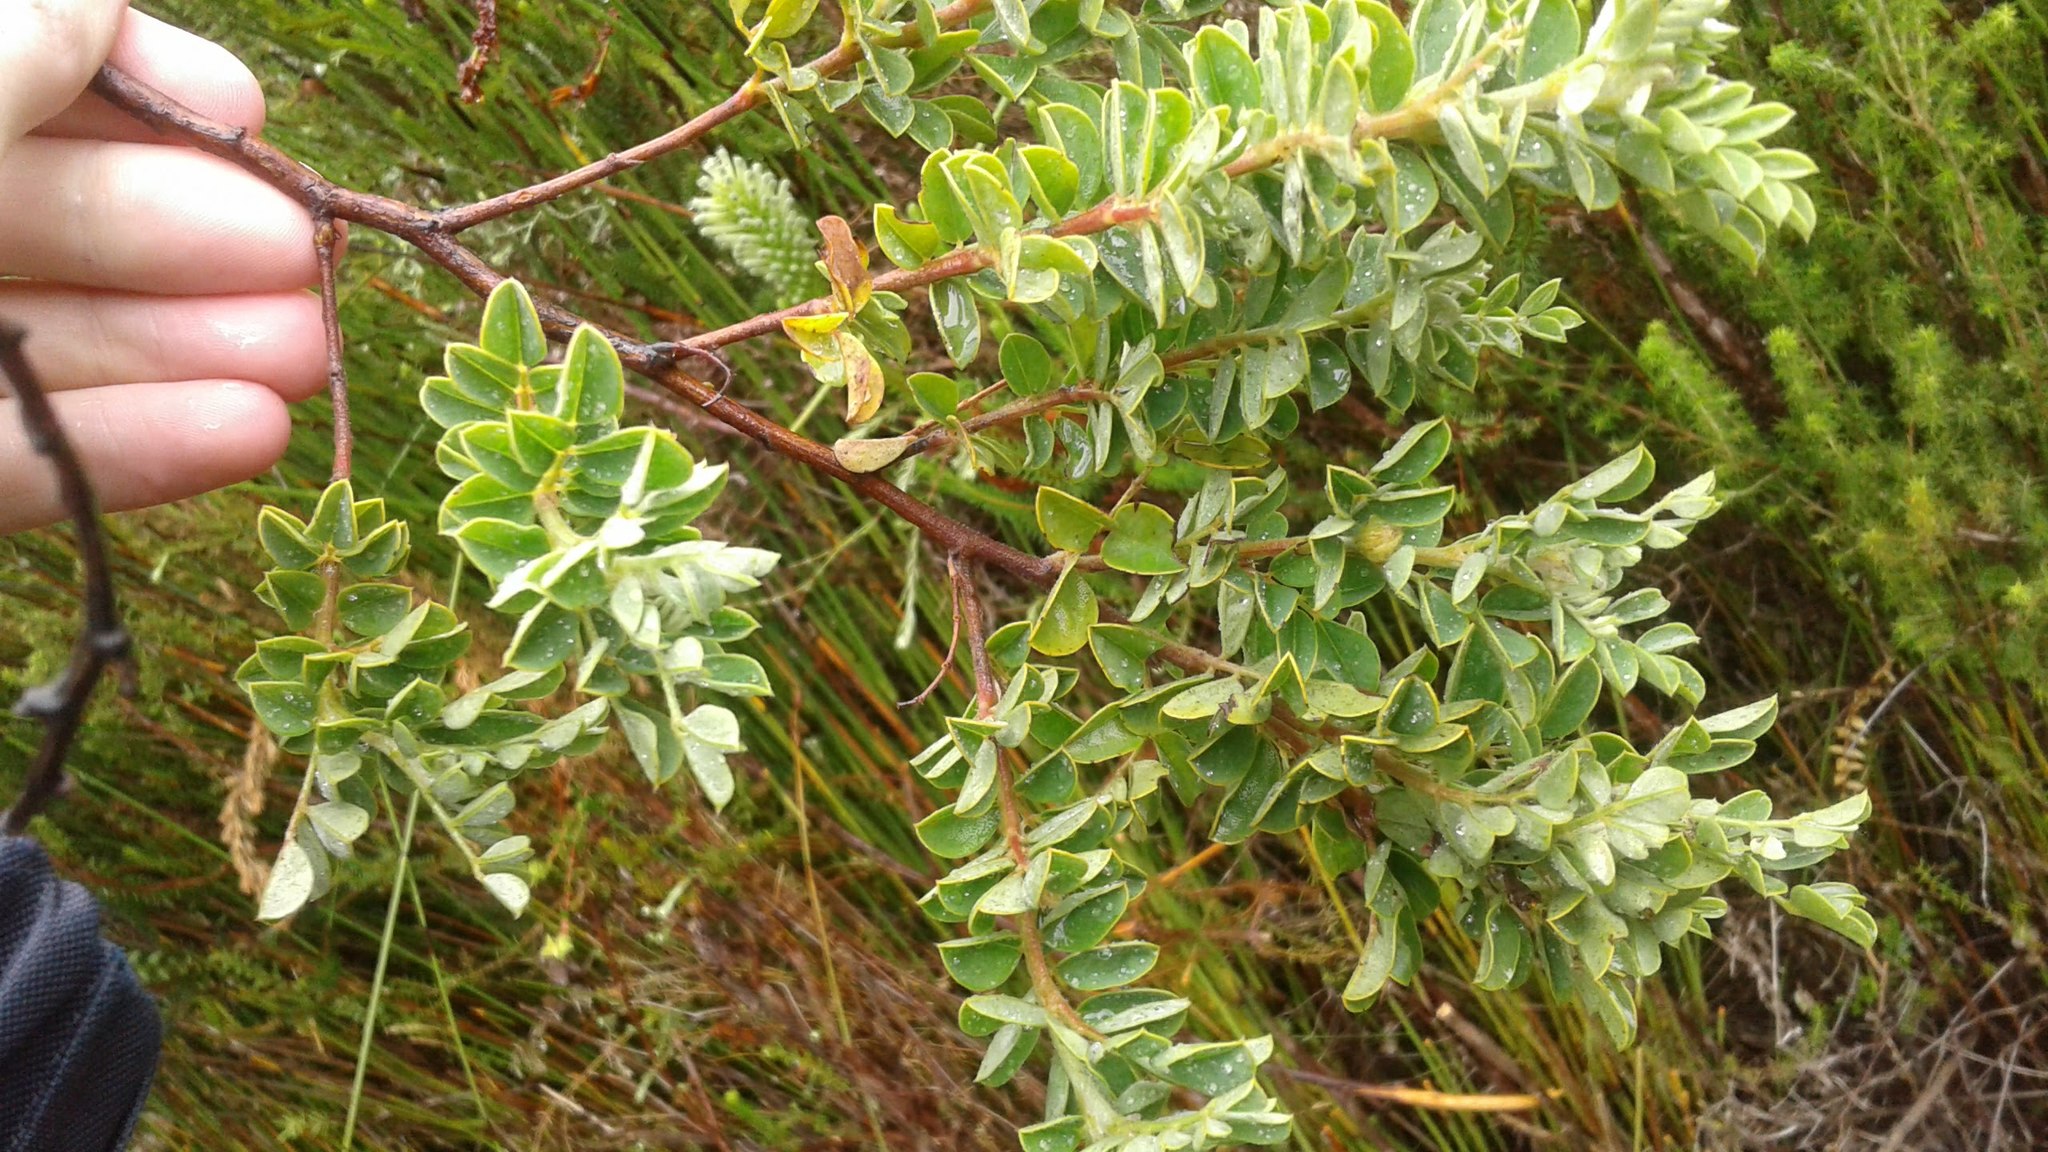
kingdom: Plantae
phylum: Tracheophyta
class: Magnoliopsida
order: Fabales
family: Fabaceae
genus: Indigofera
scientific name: Indigofera superba
